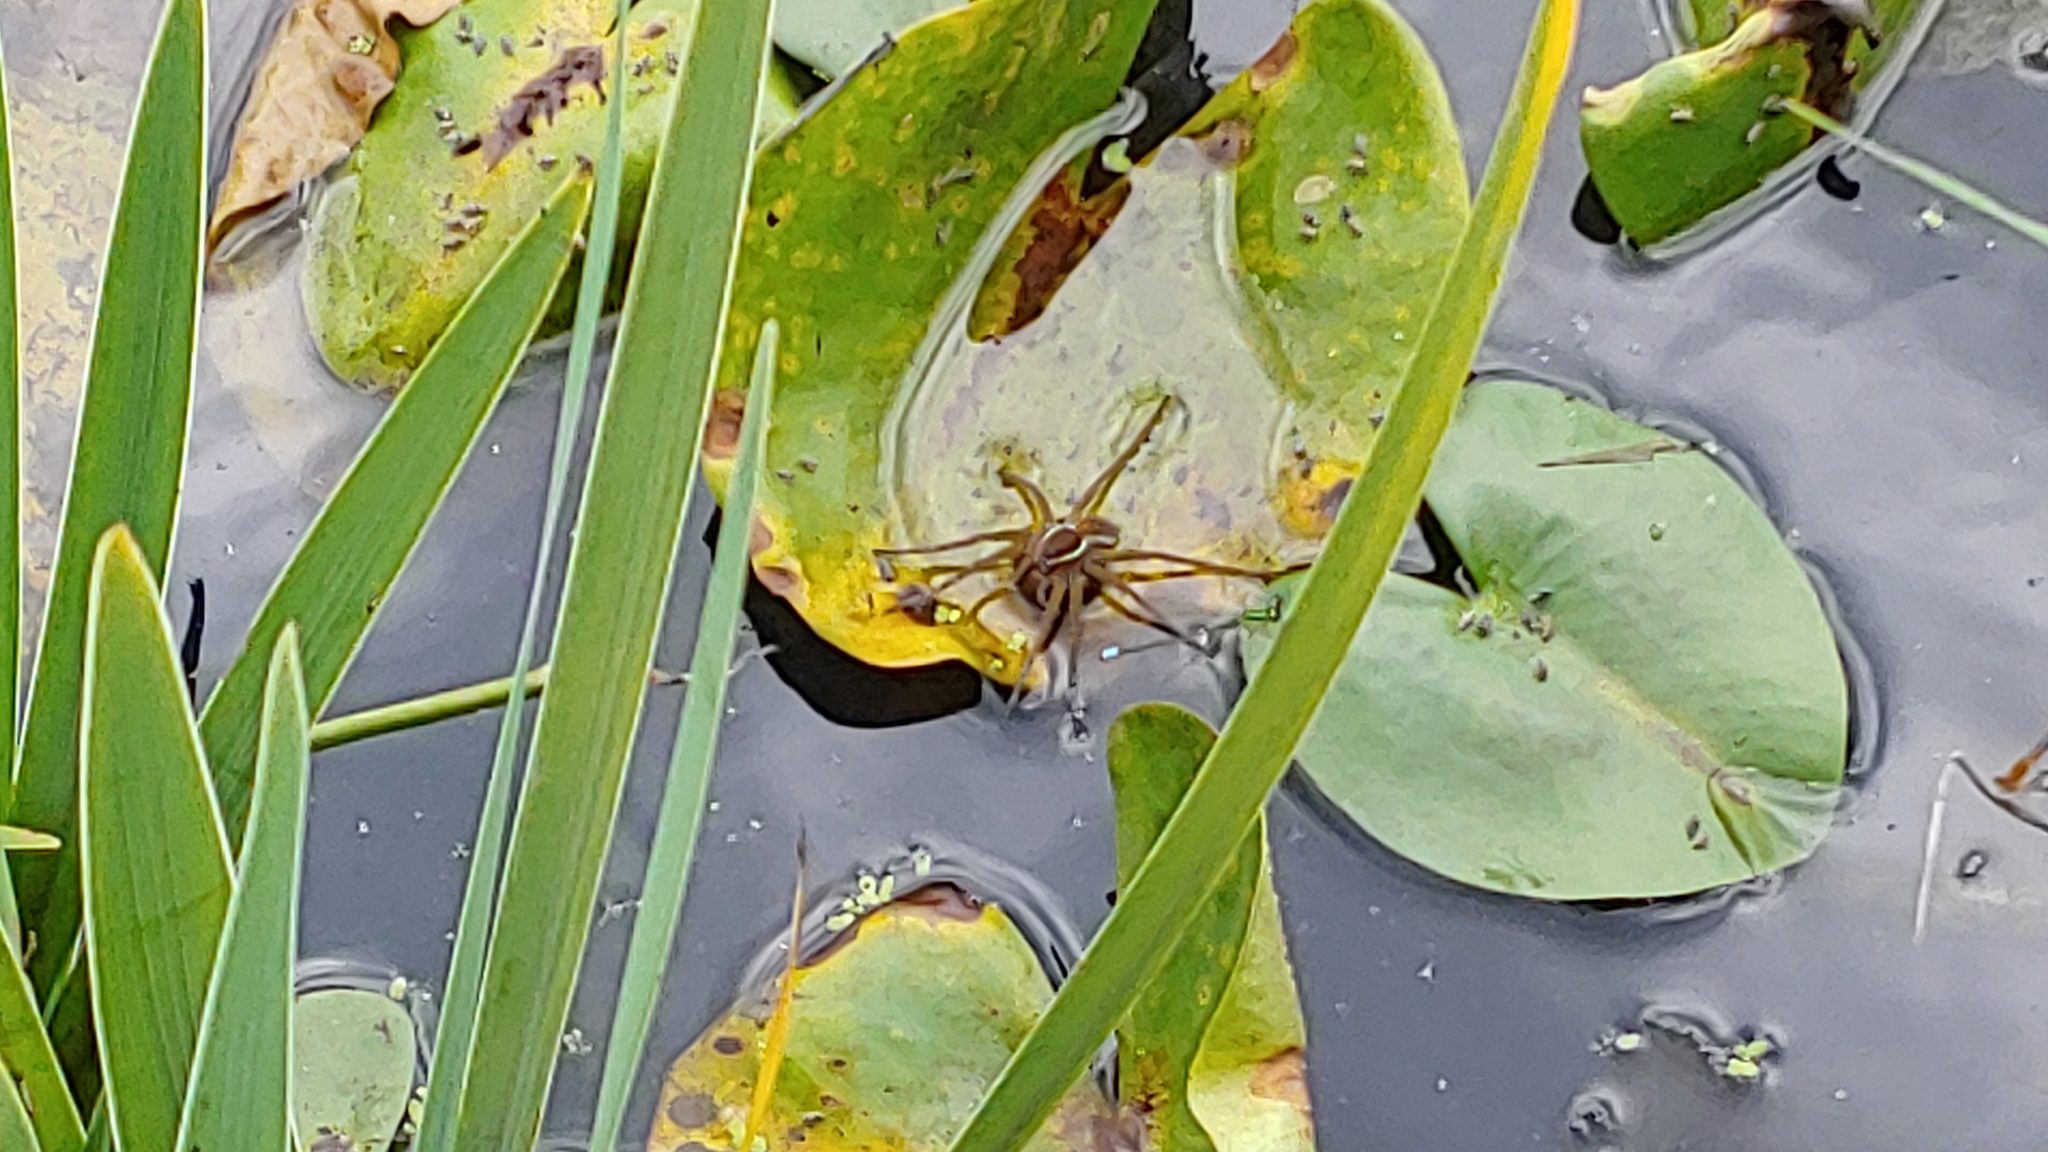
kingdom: Animalia
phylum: Arthropoda
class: Arachnida
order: Araneae
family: Pisauridae
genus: Dolomedes
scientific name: Dolomedes triton
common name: Six-spotted fishing spider
